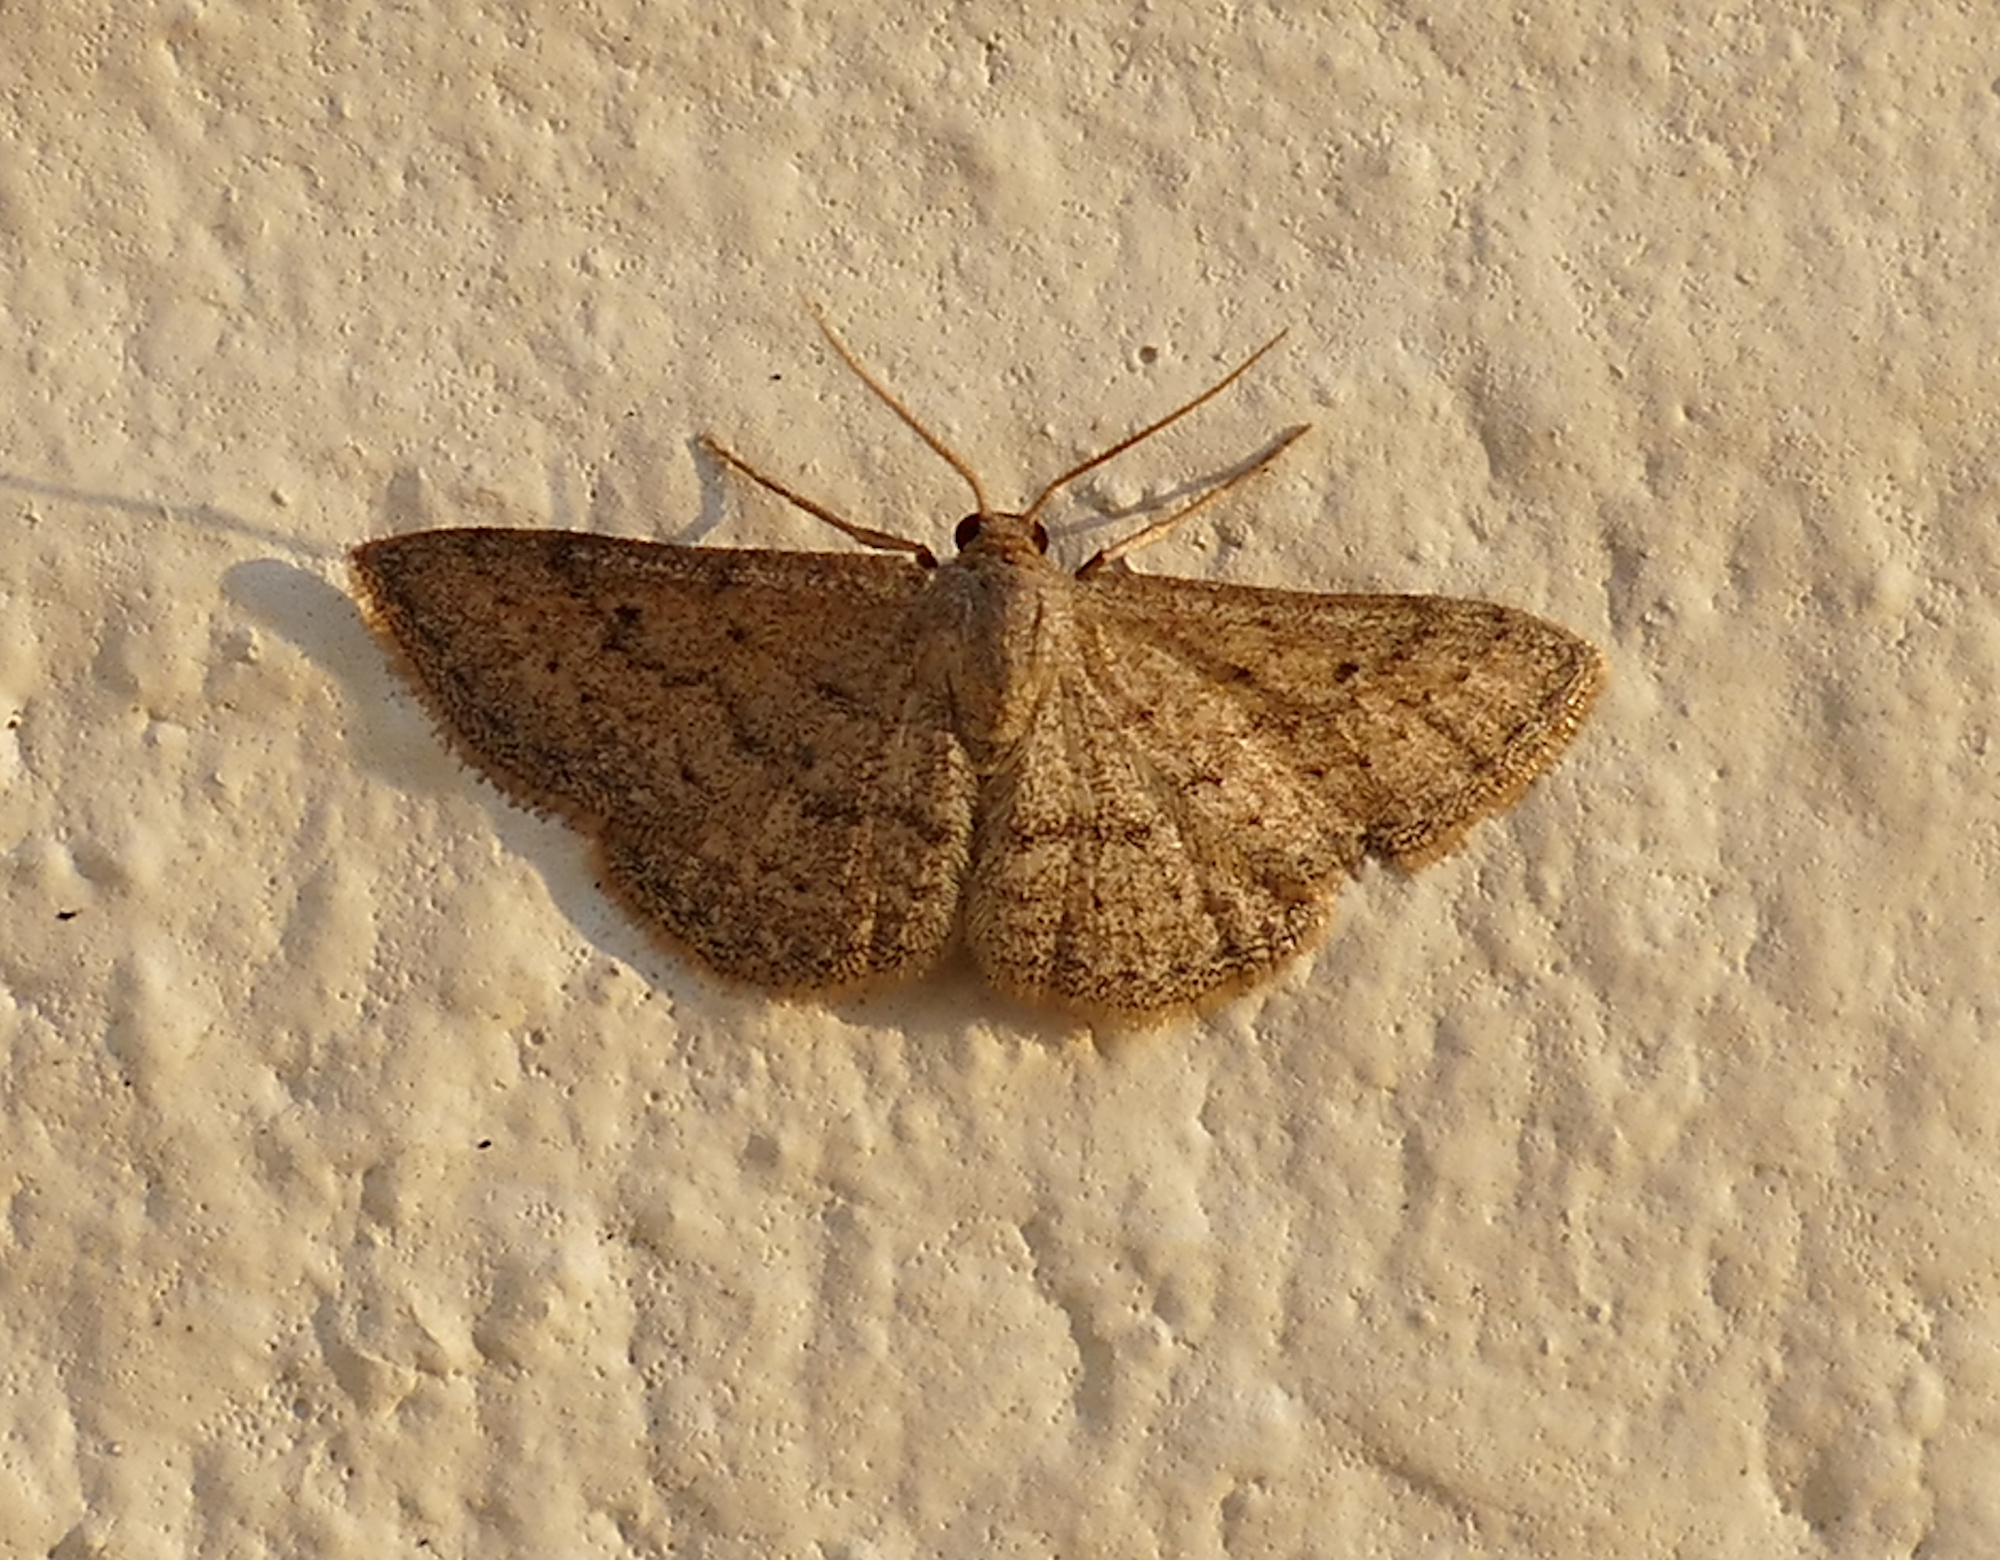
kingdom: Animalia
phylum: Arthropoda
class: Insecta
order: Lepidoptera
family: Geometridae
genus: Lobocleta
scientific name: Lobocleta ossularia
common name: Drab brown wave
